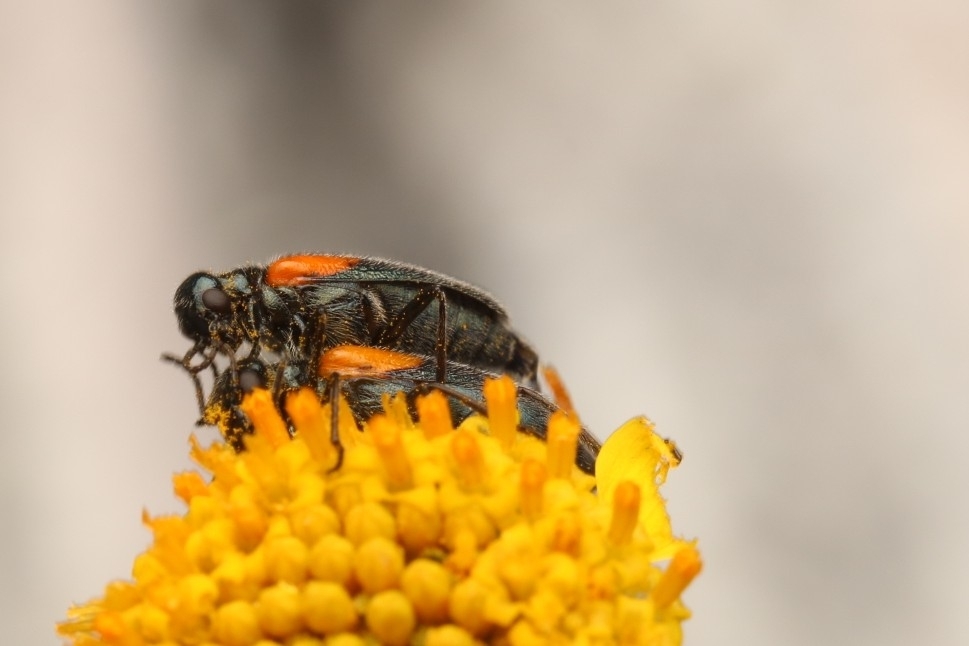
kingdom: Animalia
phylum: Arthropoda
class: Insecta
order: Coleoptera
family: Meloidae
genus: Eupompha
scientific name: Eupompha elegans
